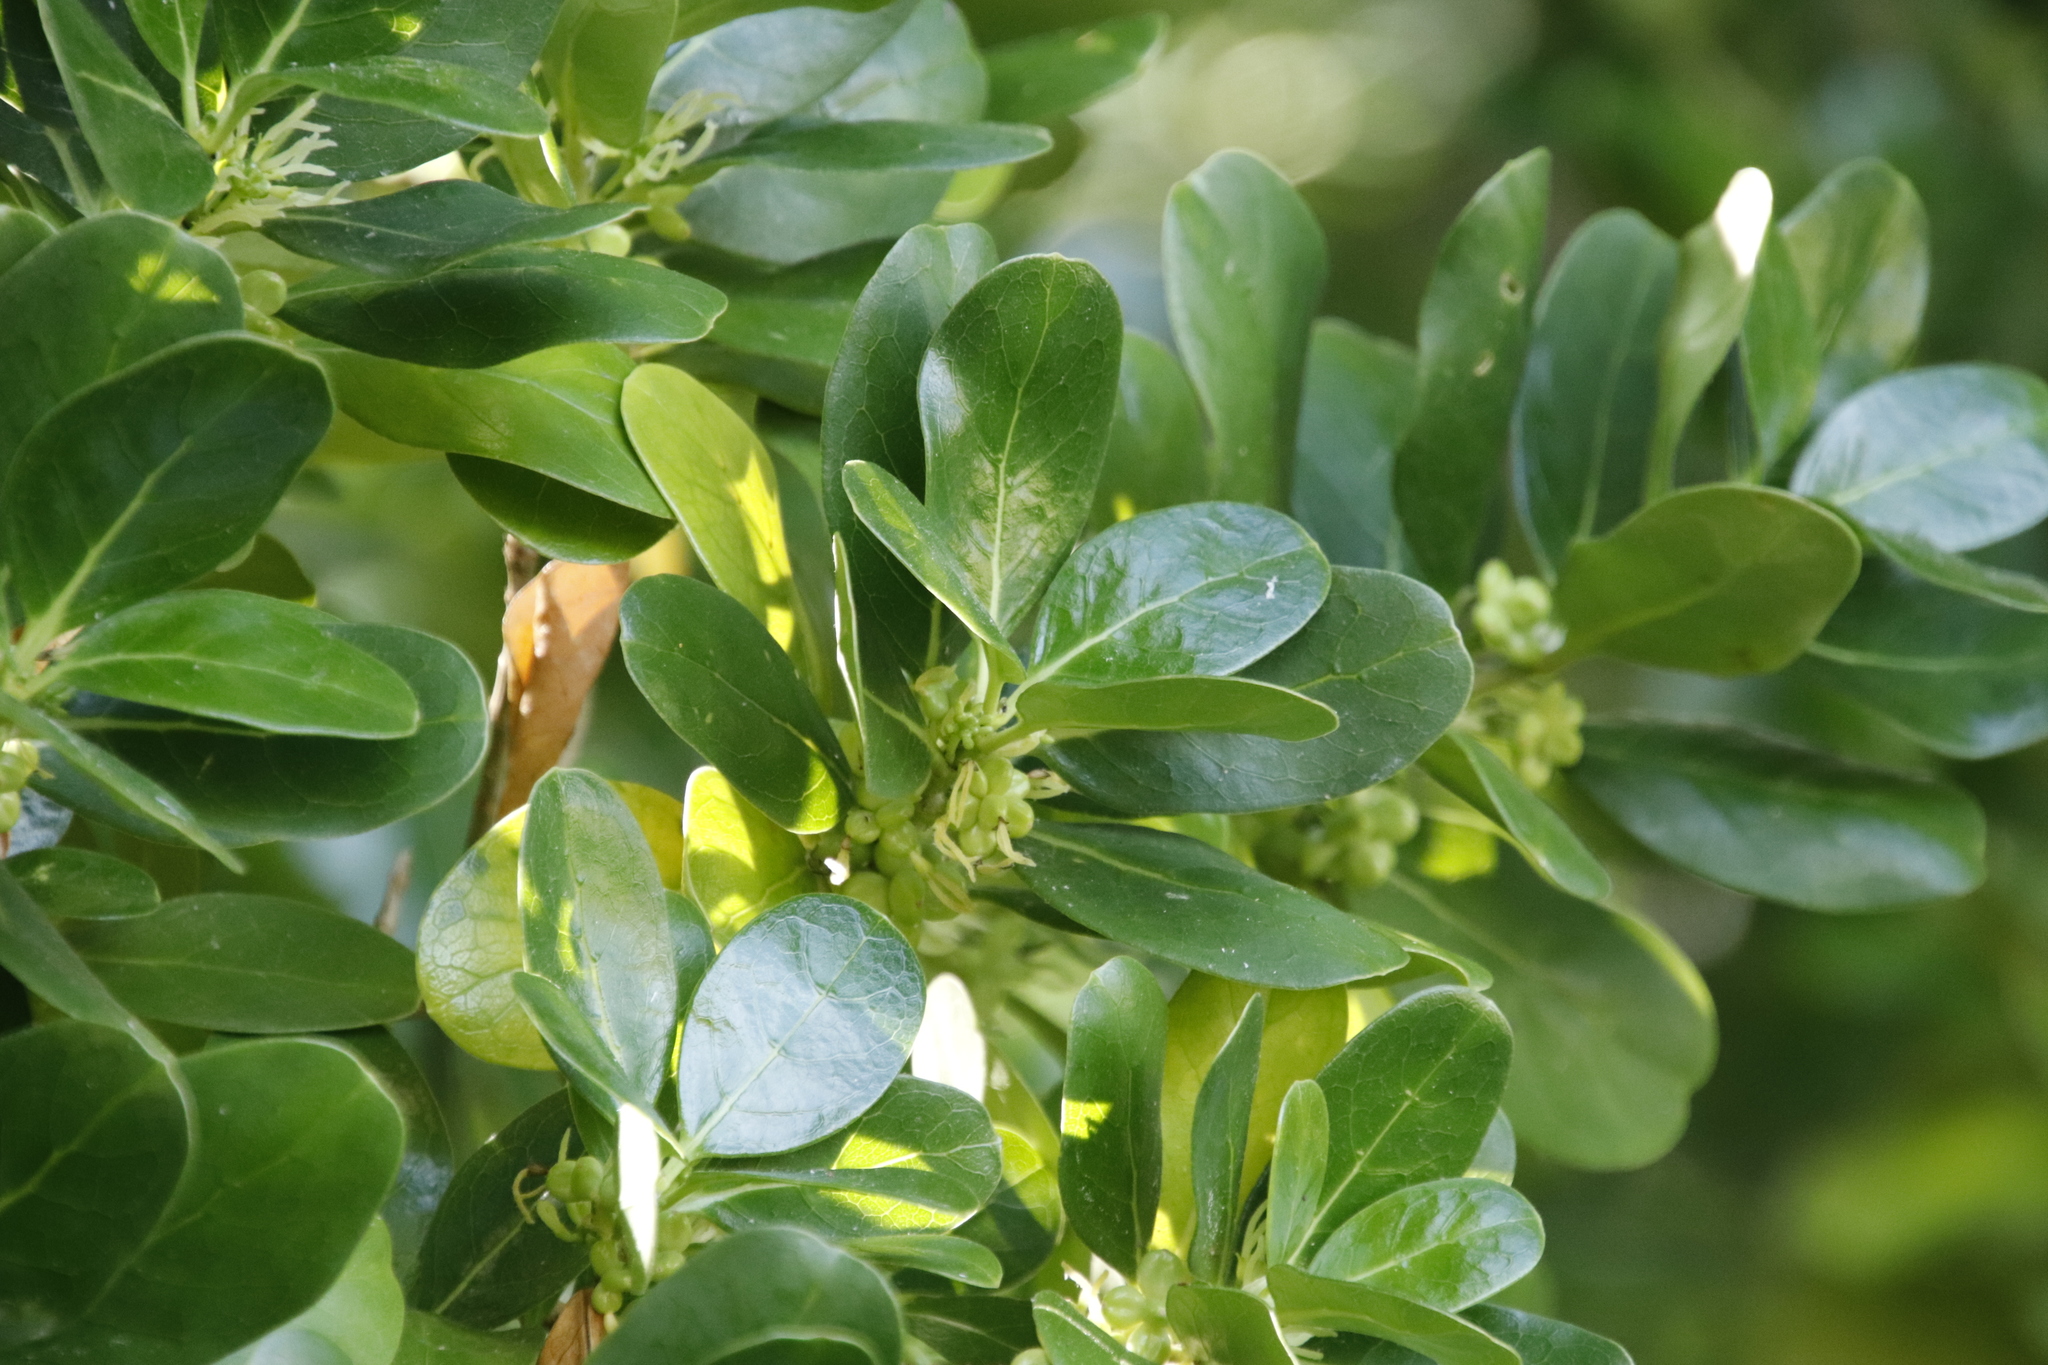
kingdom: Plantae
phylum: Tracheophyta
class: Magnoliopsida
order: Gentianales
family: Rubiaceae
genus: Coprosma
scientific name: Coprosma repens
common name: Tree bedstraw
